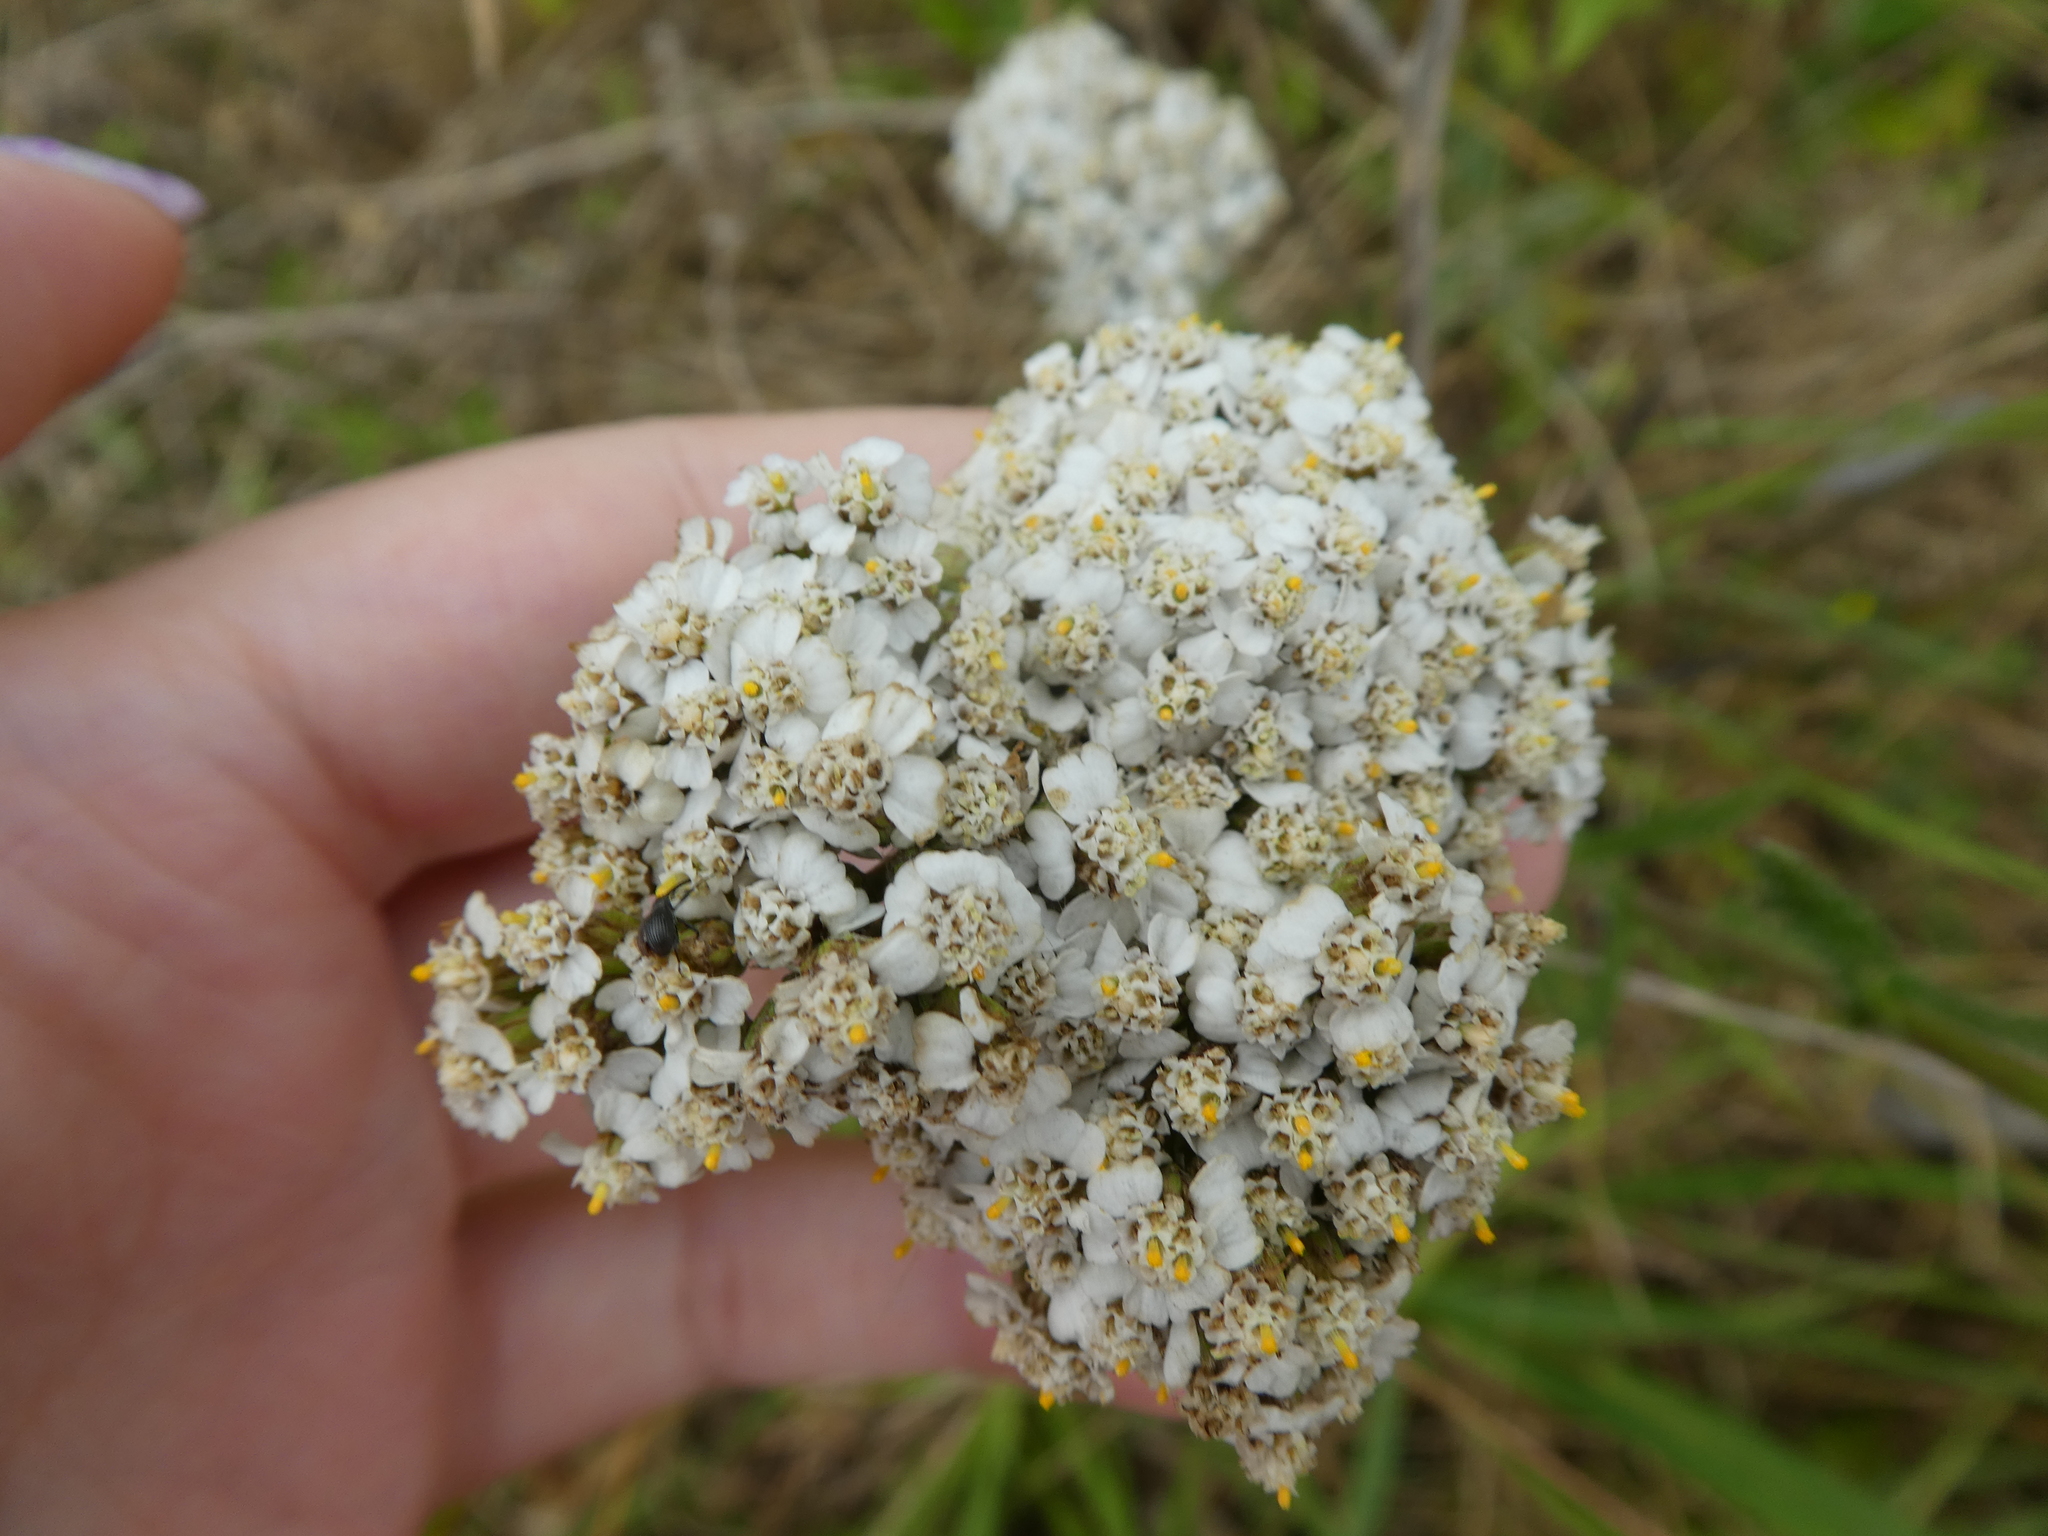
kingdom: Plantae
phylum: Tracheophyta
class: Magnoliopsida
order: Asterales
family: Asteraceae
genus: Achillea
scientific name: Achillea millefolium
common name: Yarrow
